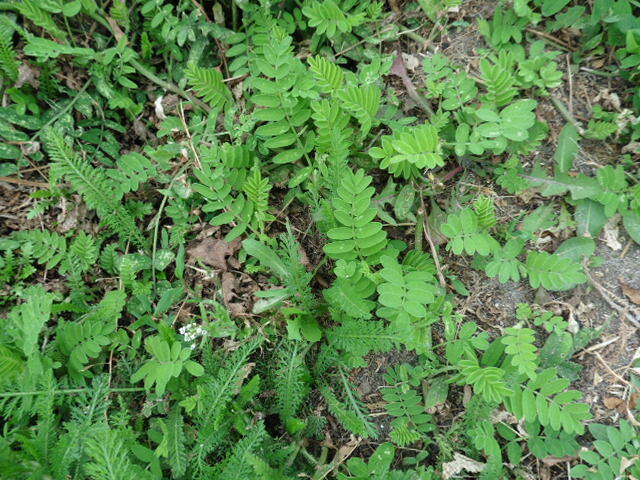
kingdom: Plantae
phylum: Tracheophyta
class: Magnoliopsida
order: Fabales
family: Fabaceae
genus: Astragalus
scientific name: Astragalus cicer
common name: Chick-pea milk-vetch
